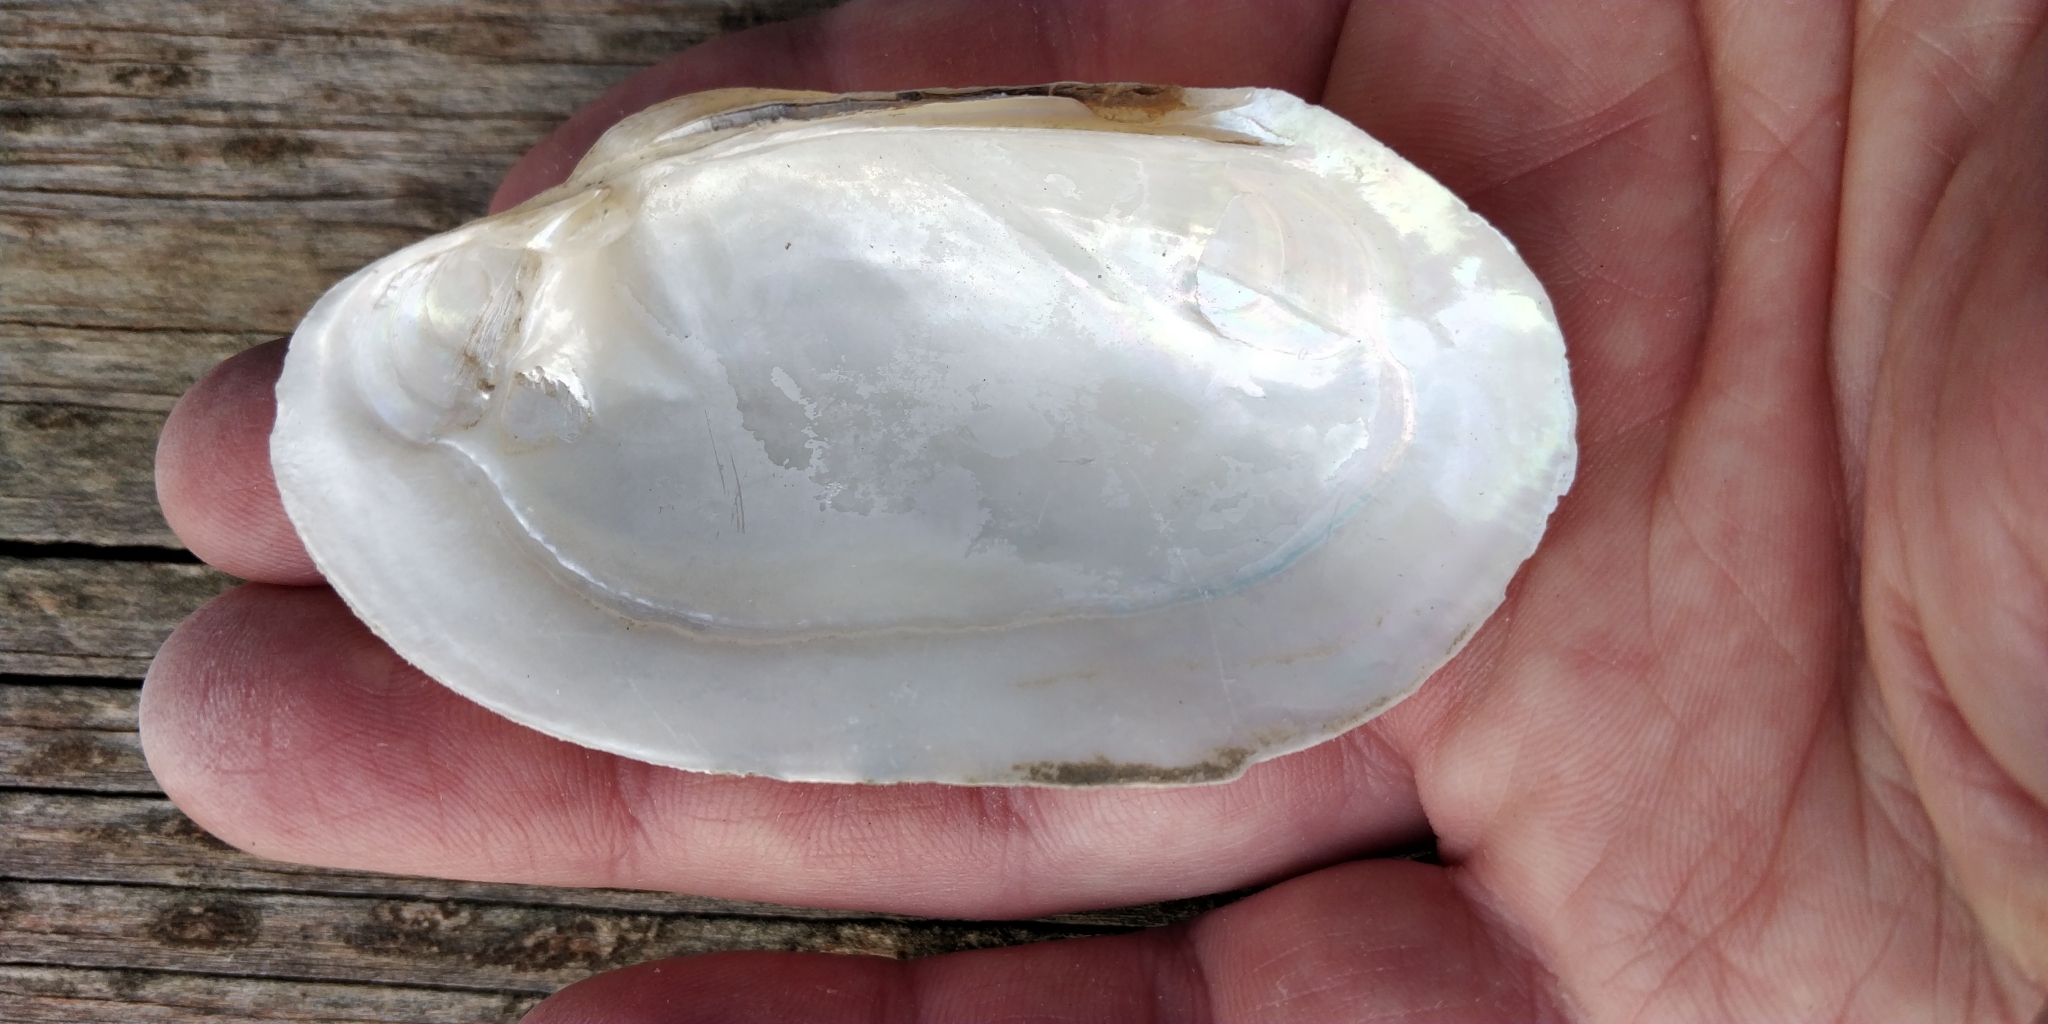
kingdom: Animalia
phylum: Mollusca
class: Bivalvia
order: Unionida
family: Unionidae
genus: Lampsilis
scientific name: Lampsilis siliquoidea
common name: Fatmucket
